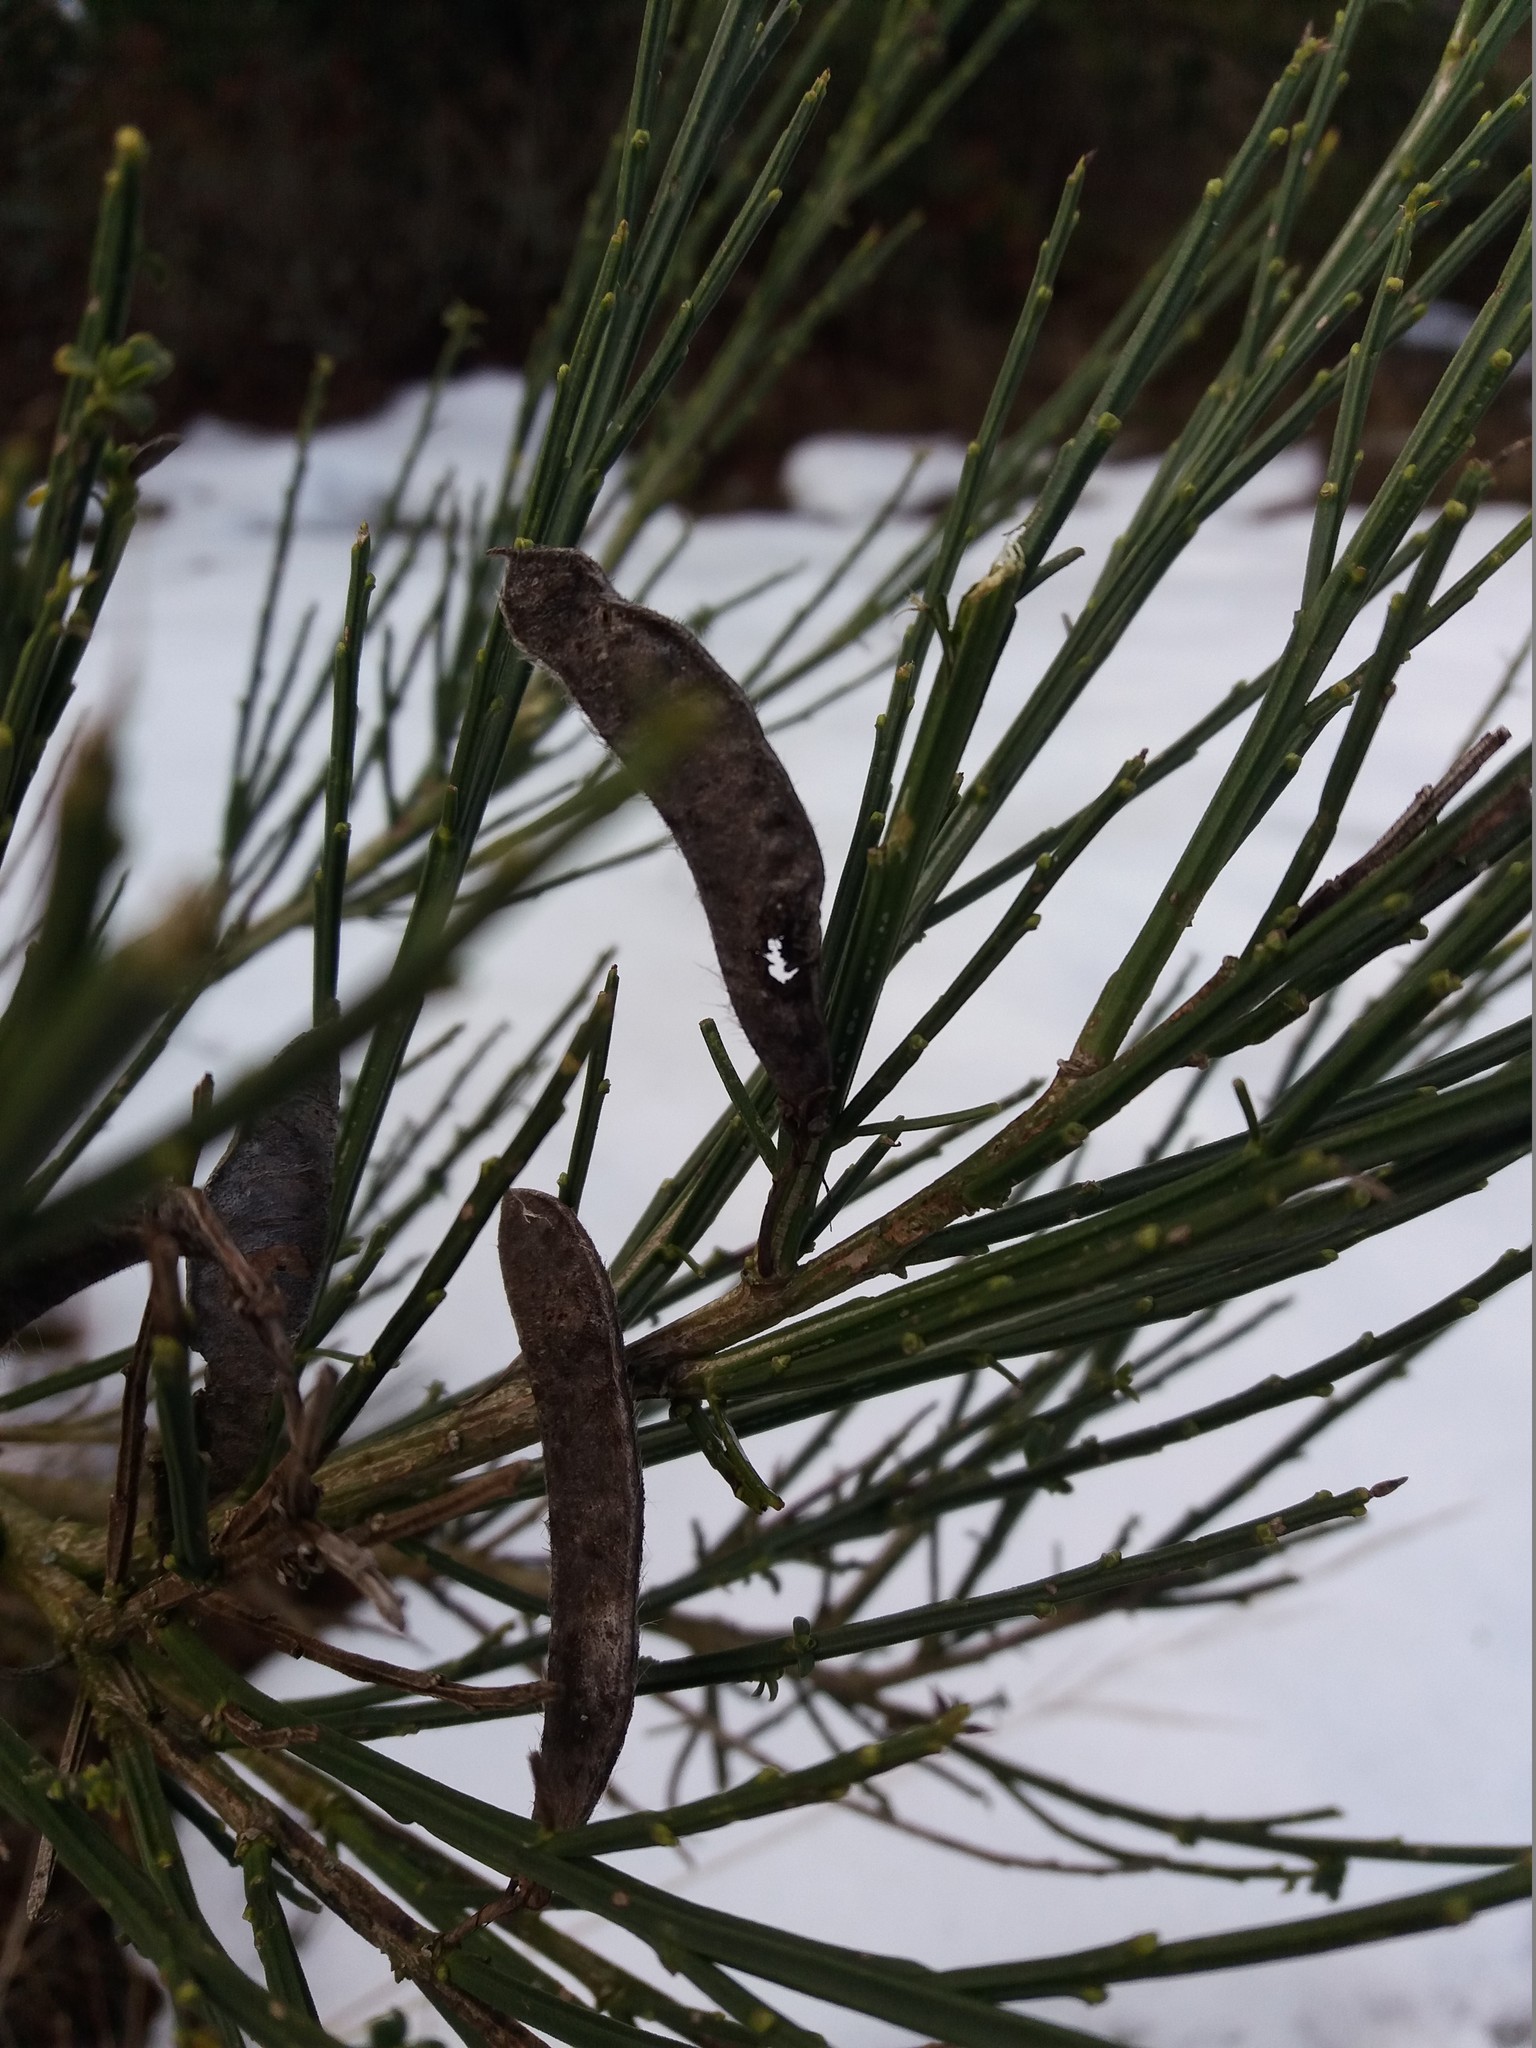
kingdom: Plantae
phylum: Tracheophyta
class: Magnoliopsida
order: Fabales
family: Fabaceae
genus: Cytisus
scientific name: Cytisus scoparius
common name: Scotch broom
